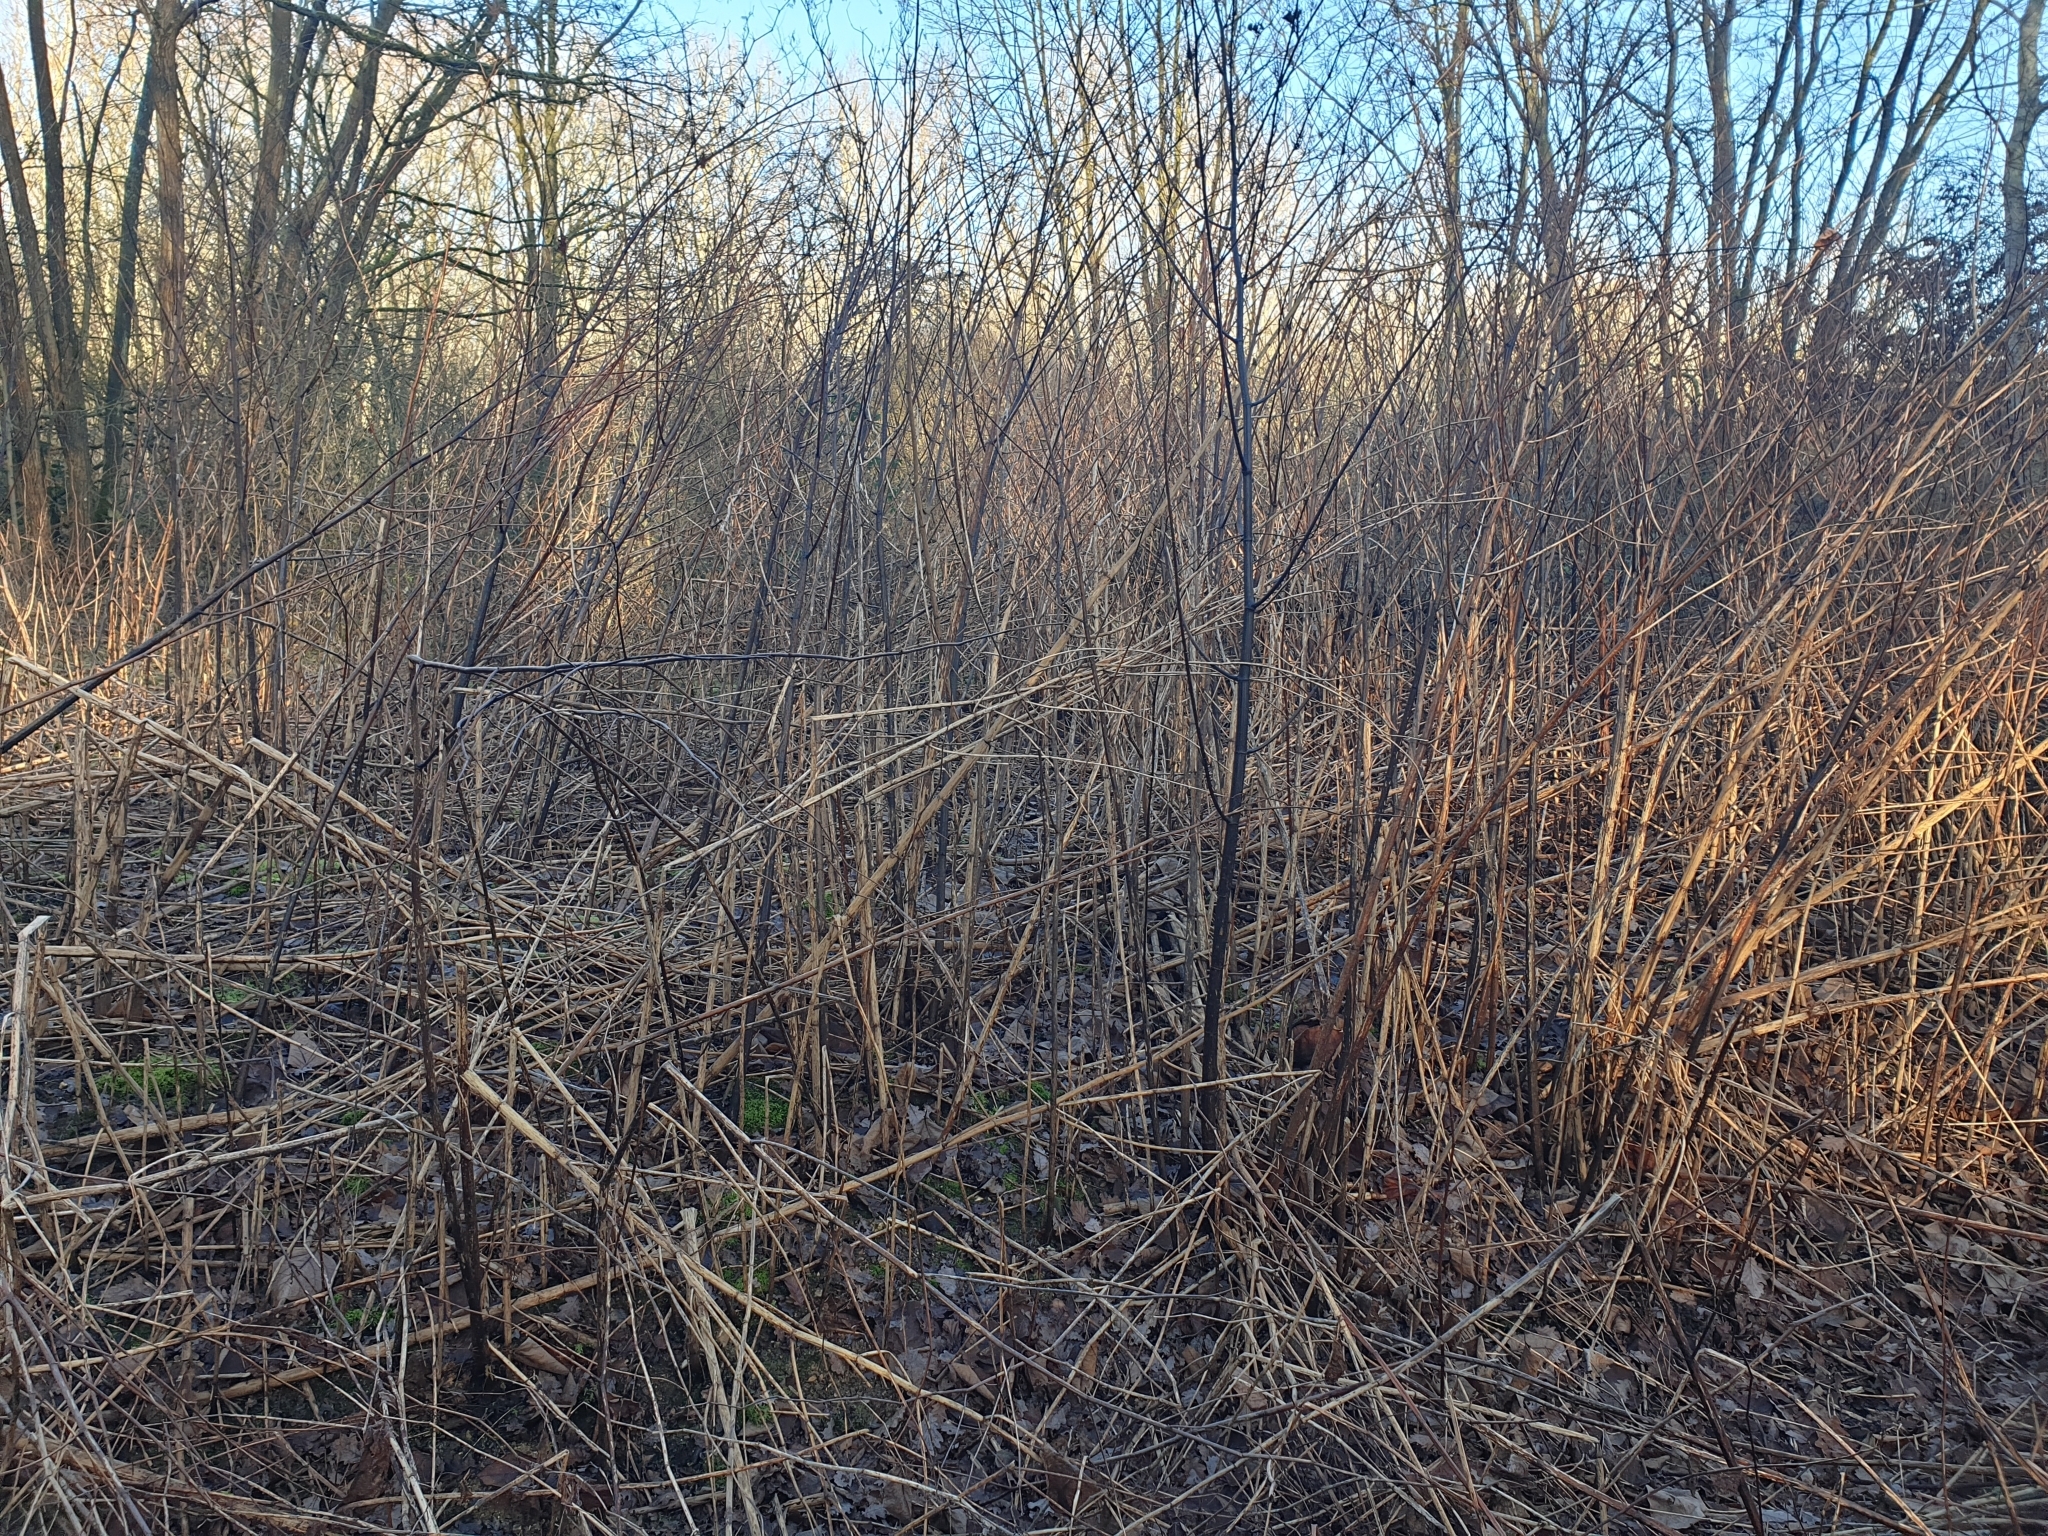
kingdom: Plantae
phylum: Tracheophyta
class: Magnoliopsida
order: Caryophyllales
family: Polygonaceae
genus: Reynoutria
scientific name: Reynoutria japonica
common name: Japanese knotweed
